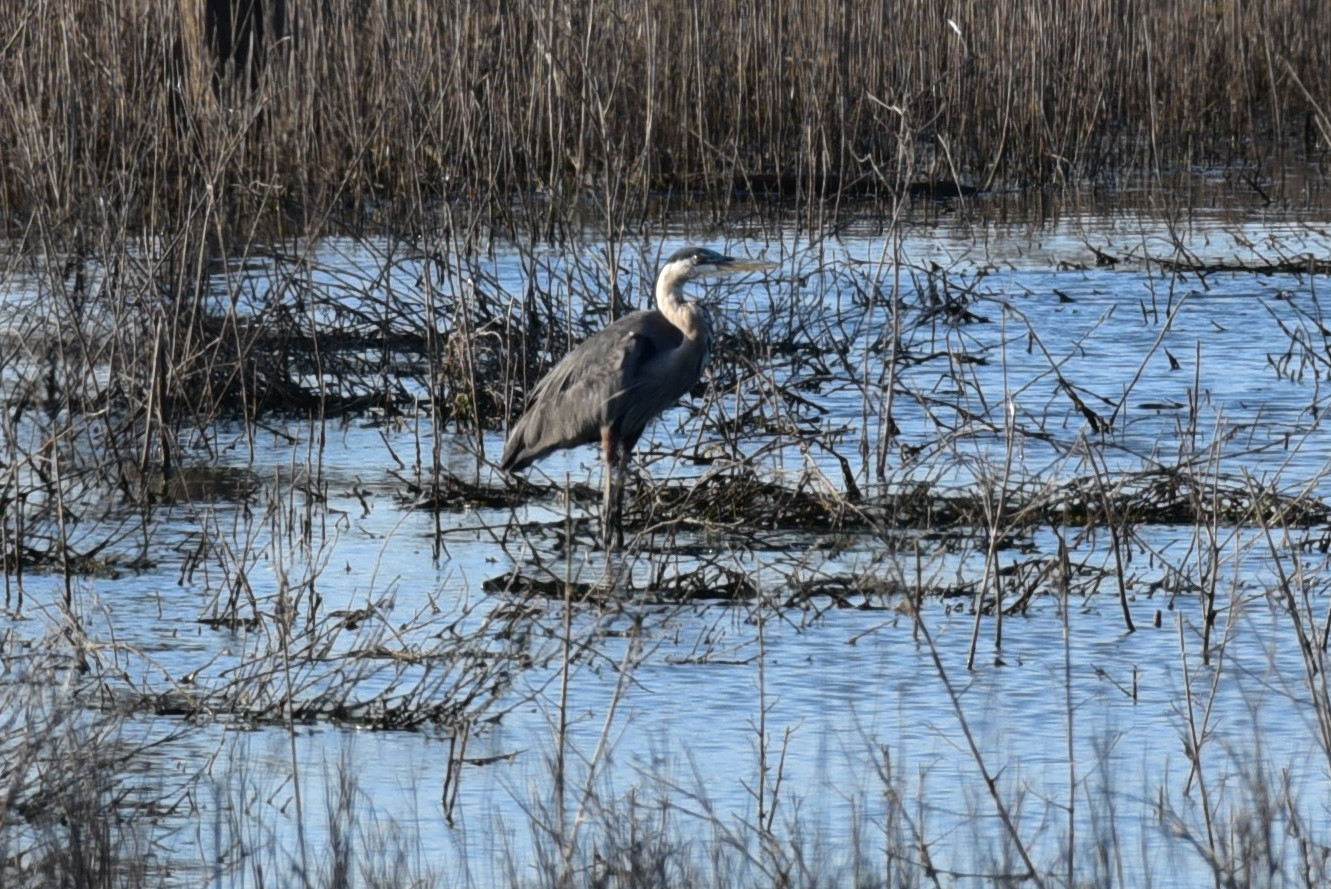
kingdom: Animalia
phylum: Chordata
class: Aves
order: Pelecaniformes
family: Ardeidae
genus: Ardea
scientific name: Ardea herodias
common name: Great blue heron
